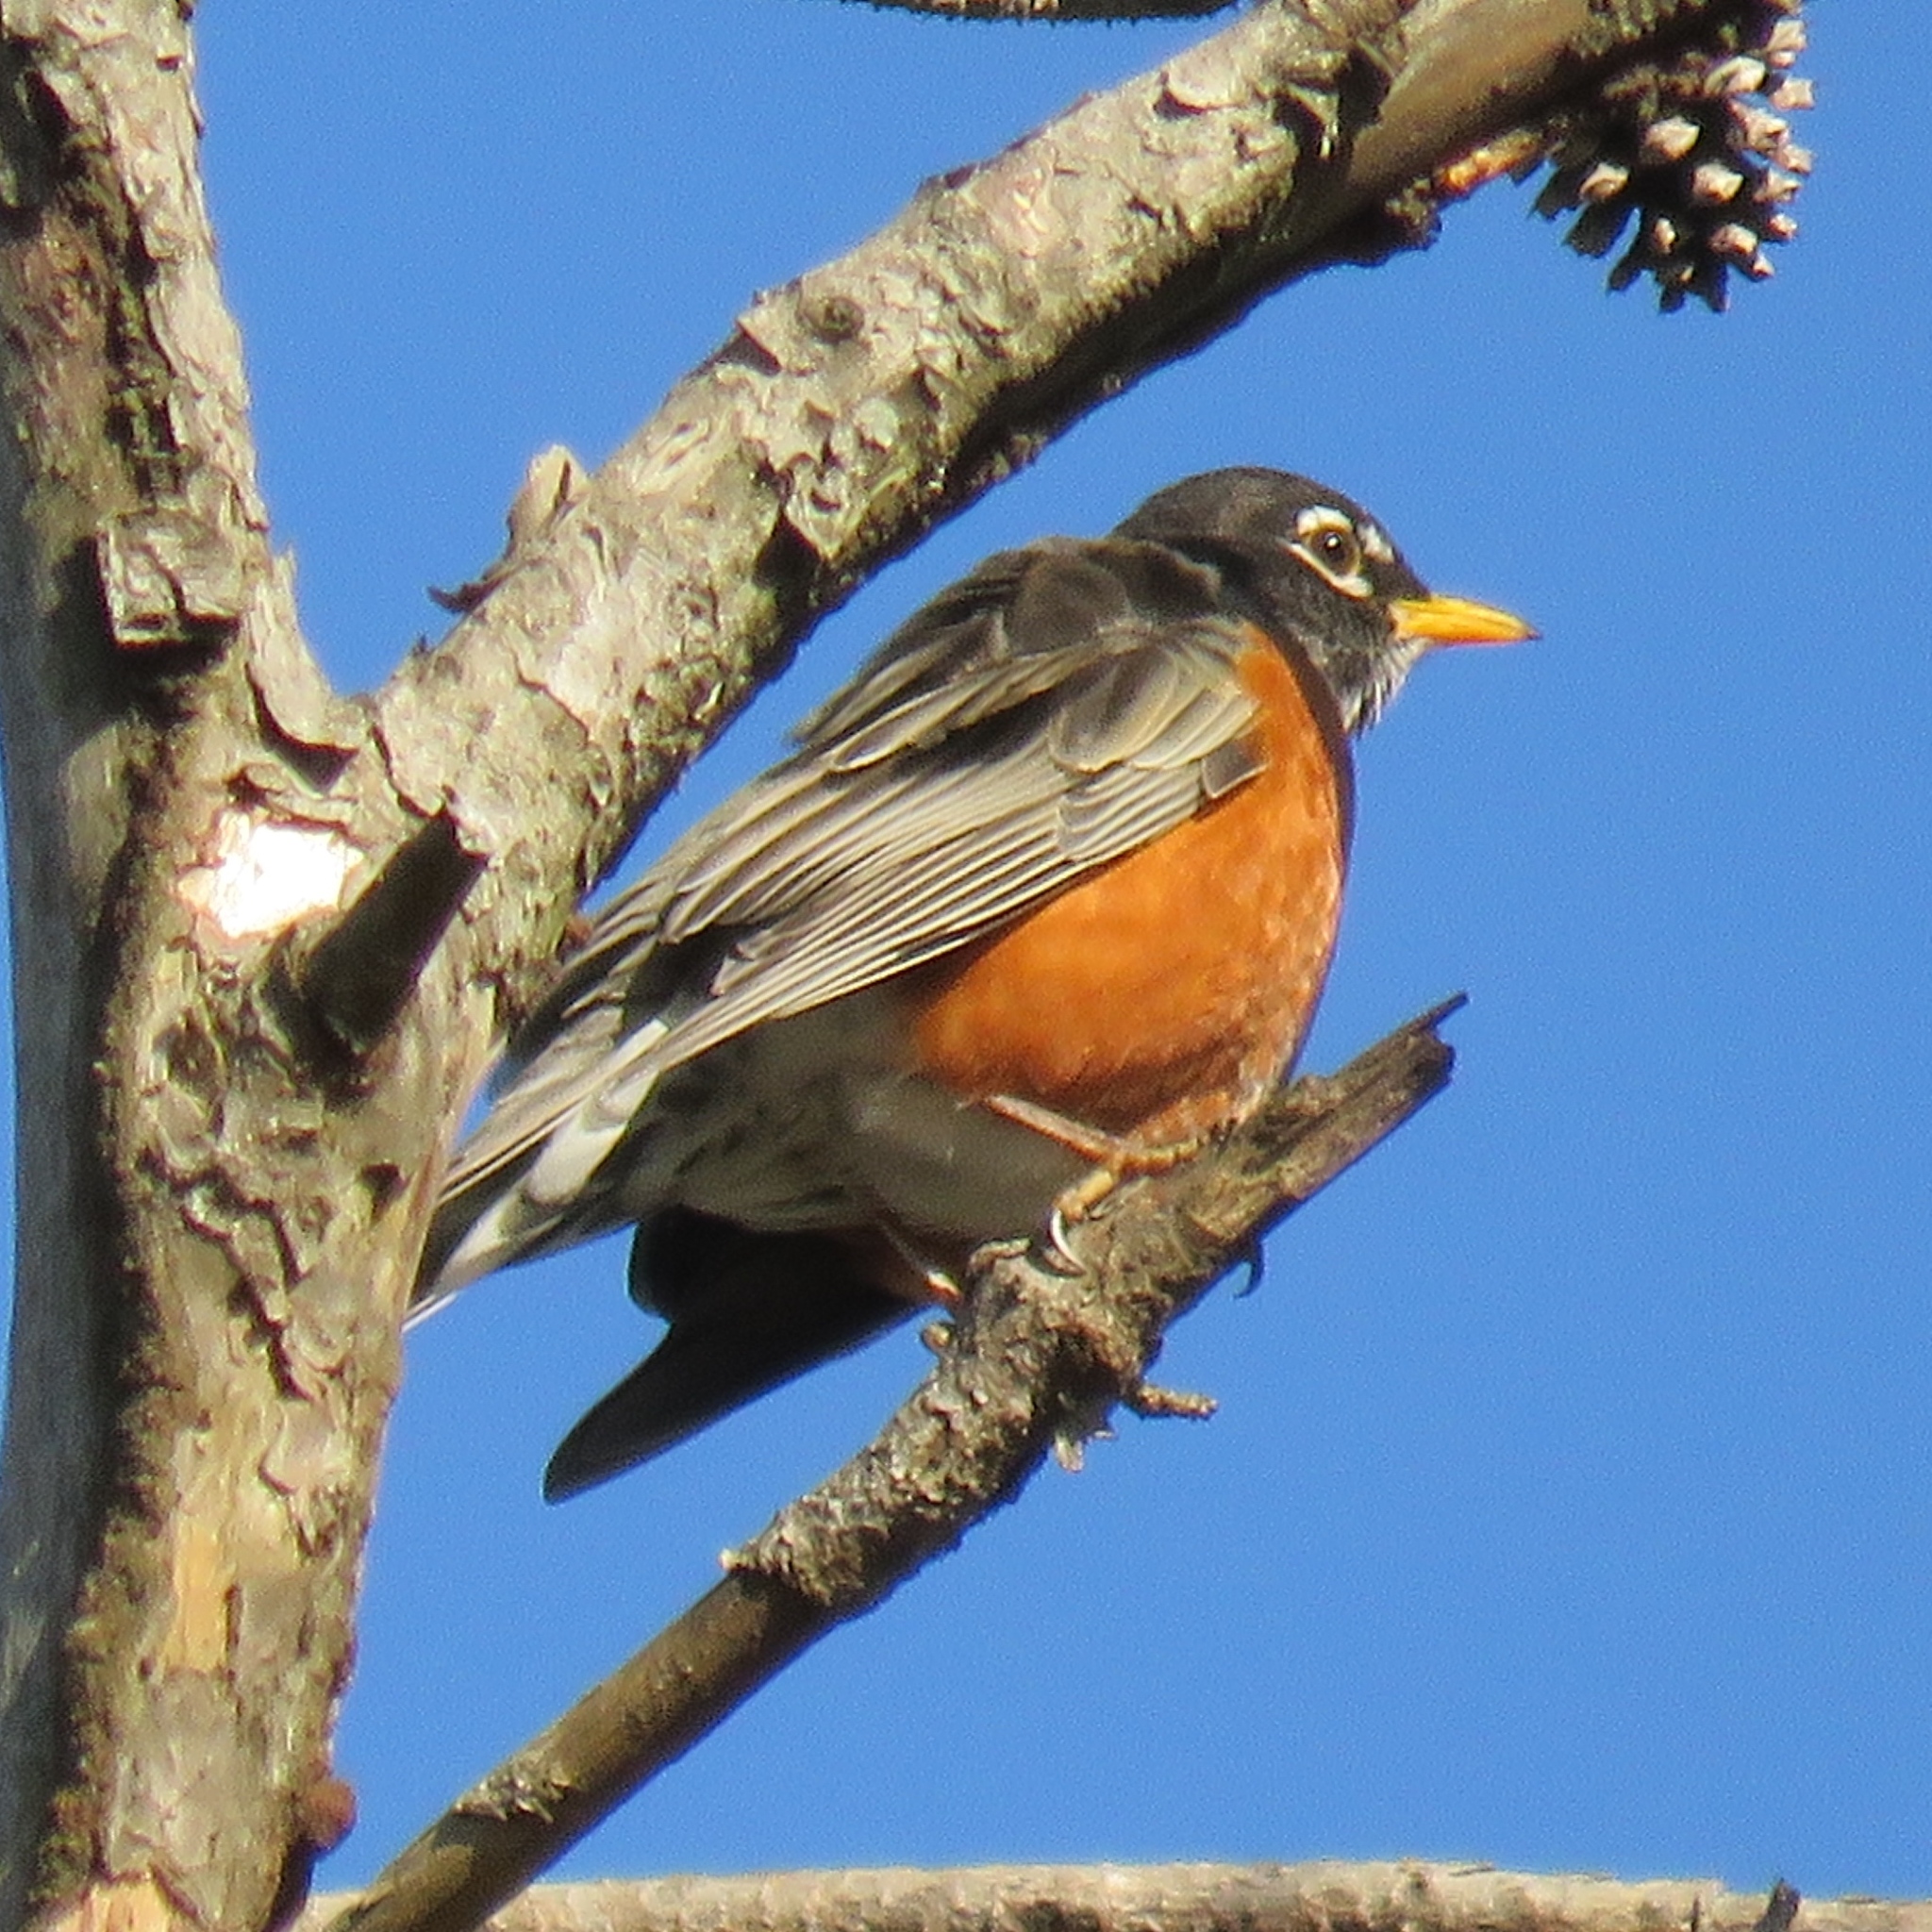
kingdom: Animalia
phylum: Chordata
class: Aves
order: Passeriformes
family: Turdidae
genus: Turdus
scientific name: Turdus migratorius
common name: American robin
